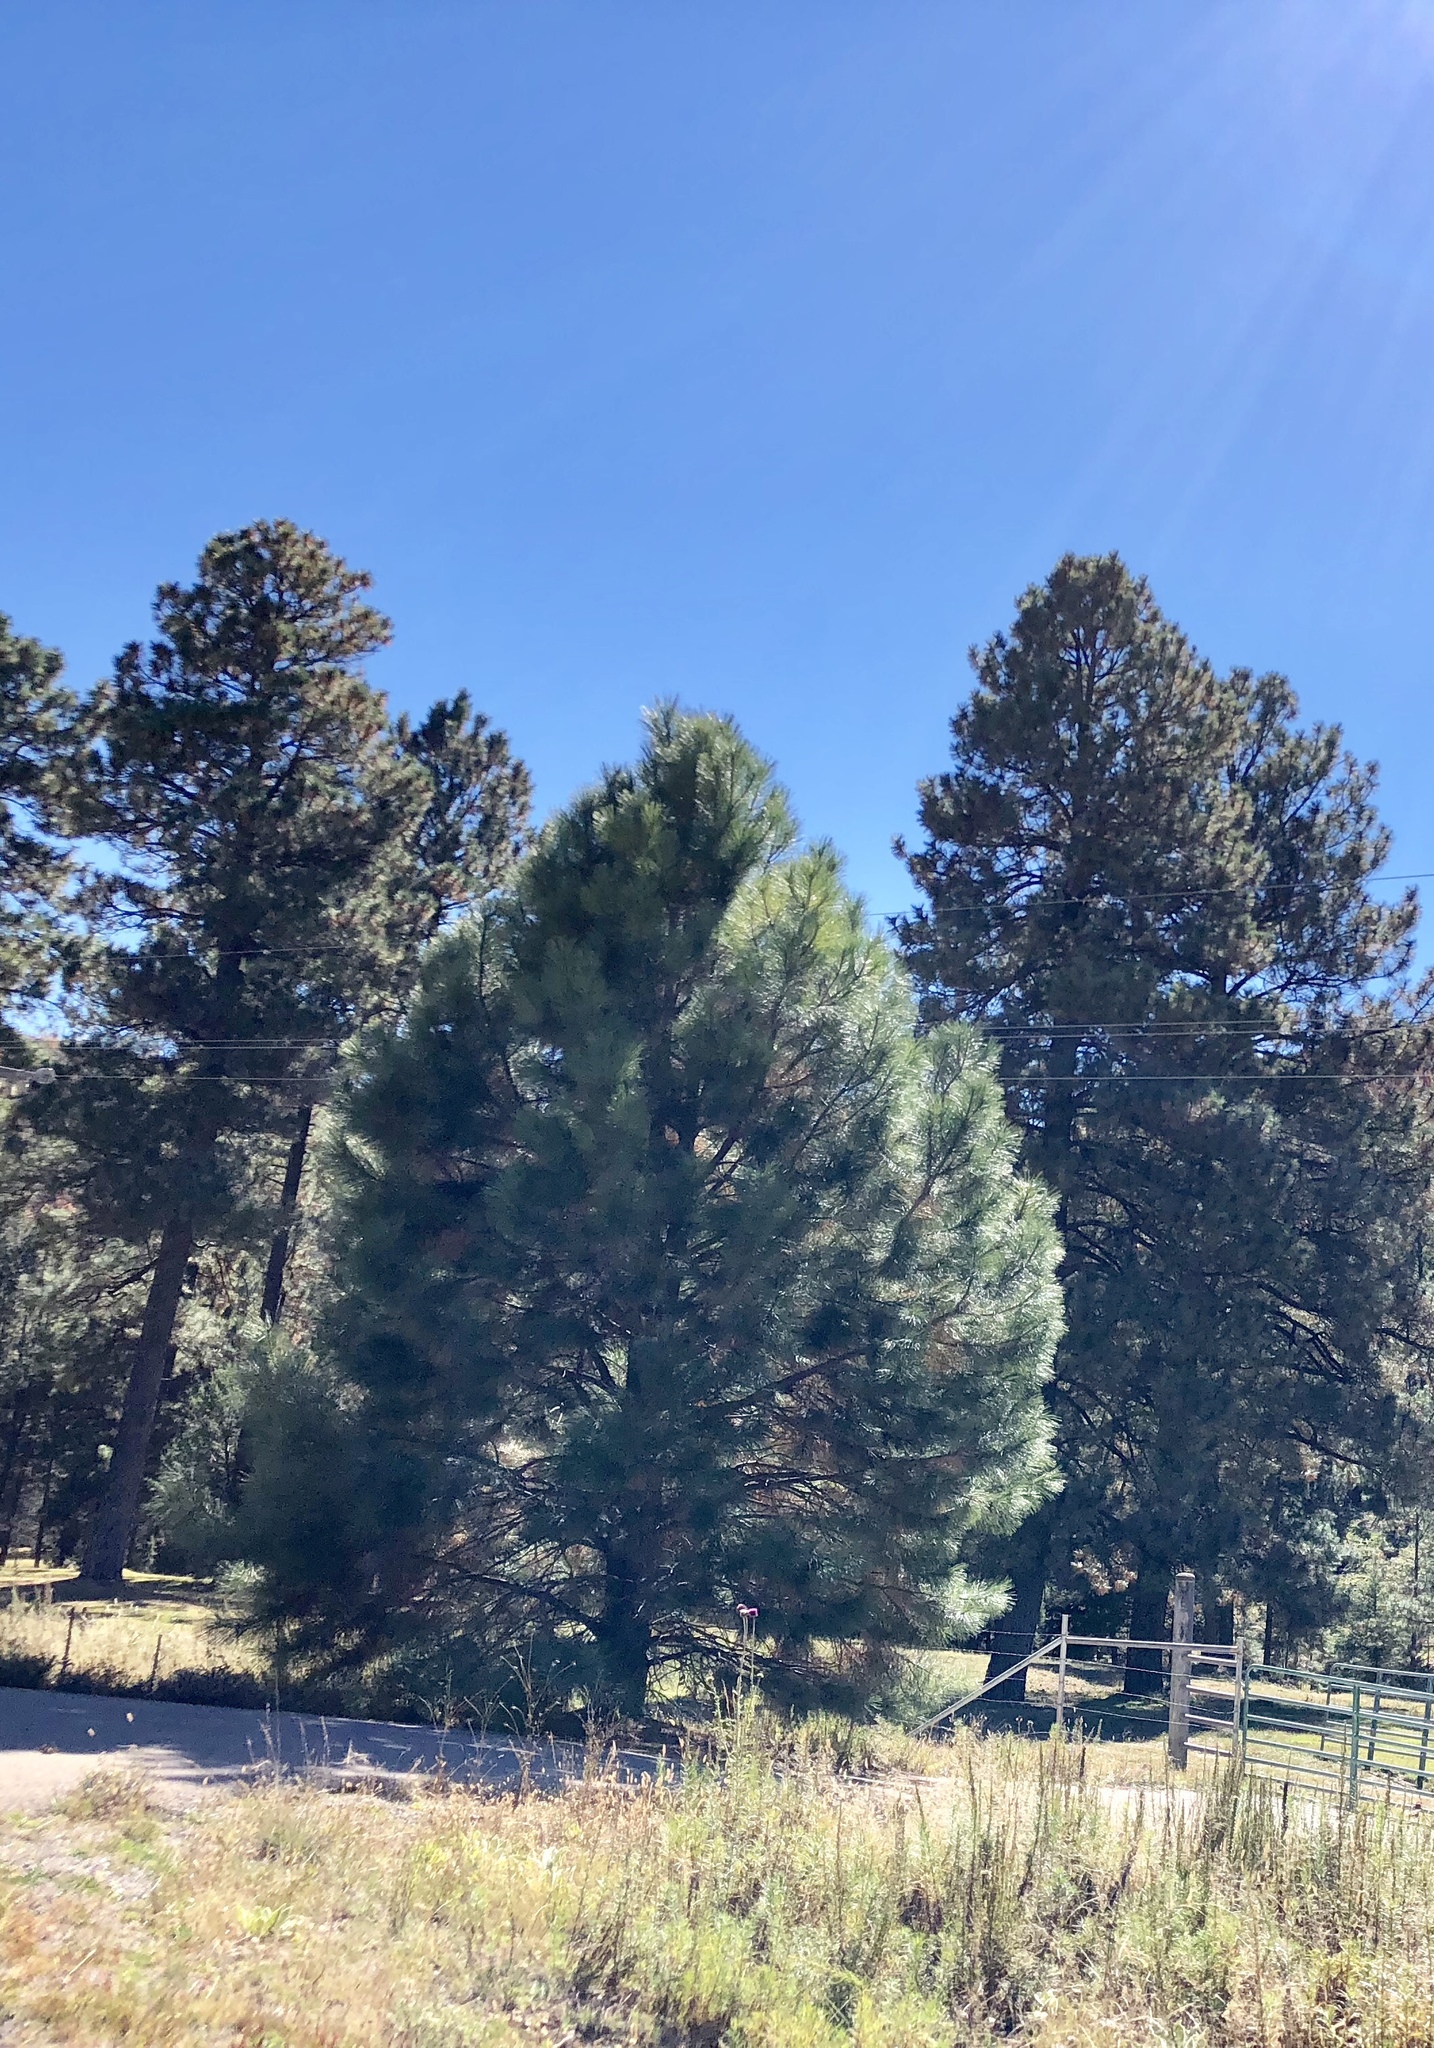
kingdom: Plantae
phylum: Tracheophyta
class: Pinopsida
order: Pinales
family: Pinaceae
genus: Pinus
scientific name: Pinus ponderosa
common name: Western yellow-pine
